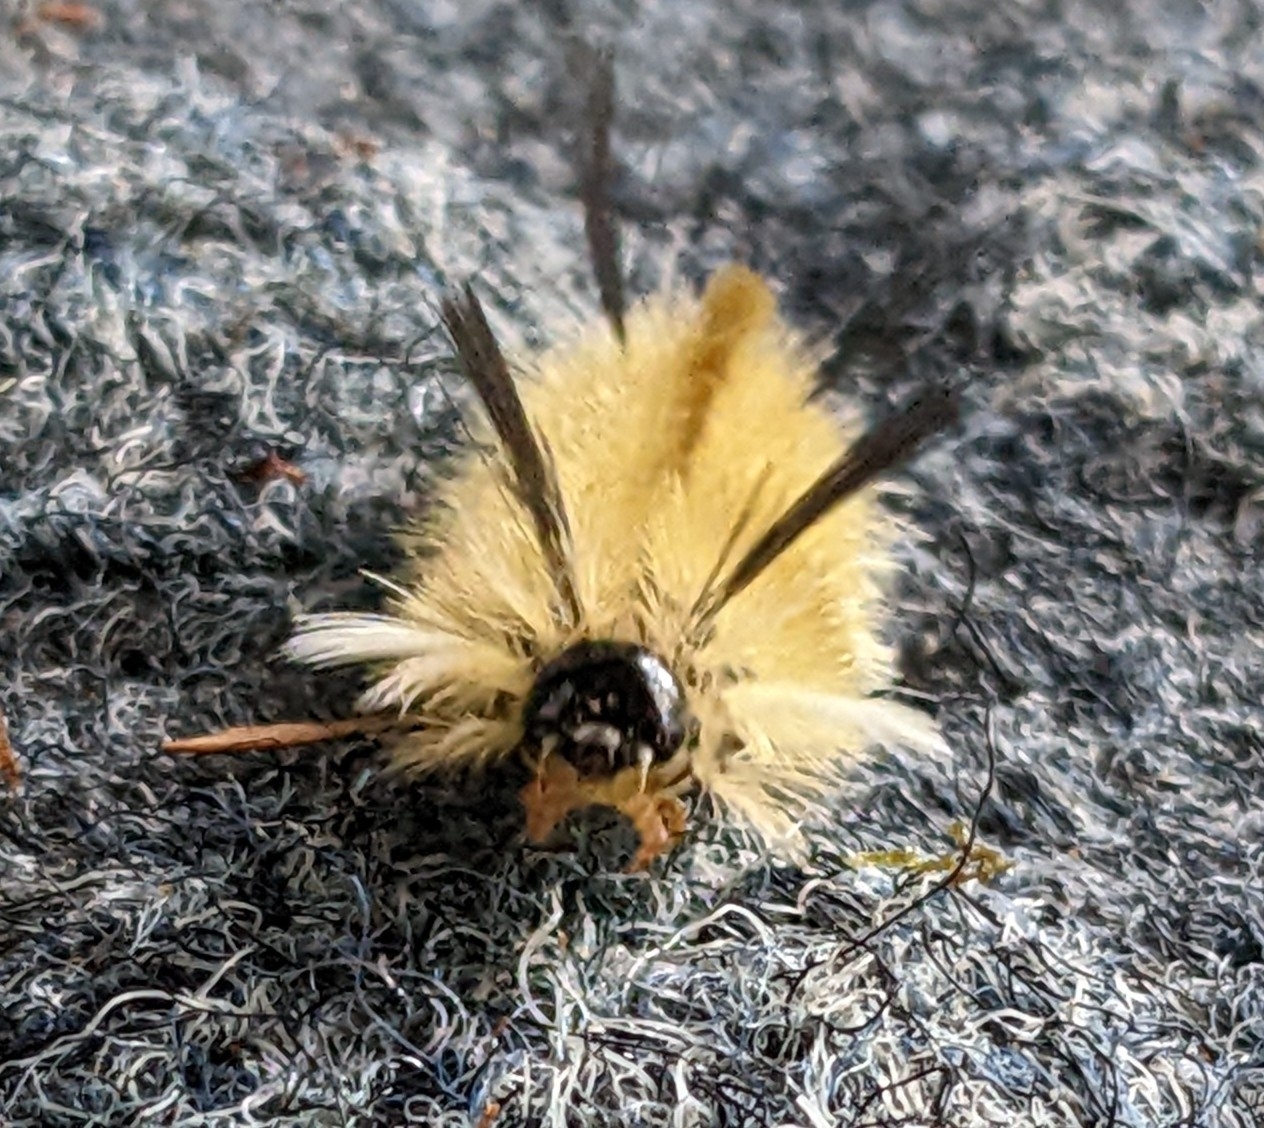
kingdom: Animalia
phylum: Arthropoda
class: Insecta
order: Lepidoptera
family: Erebidae
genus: Halysidota
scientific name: Halysidota tessellaris
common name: Banded tussock moth
